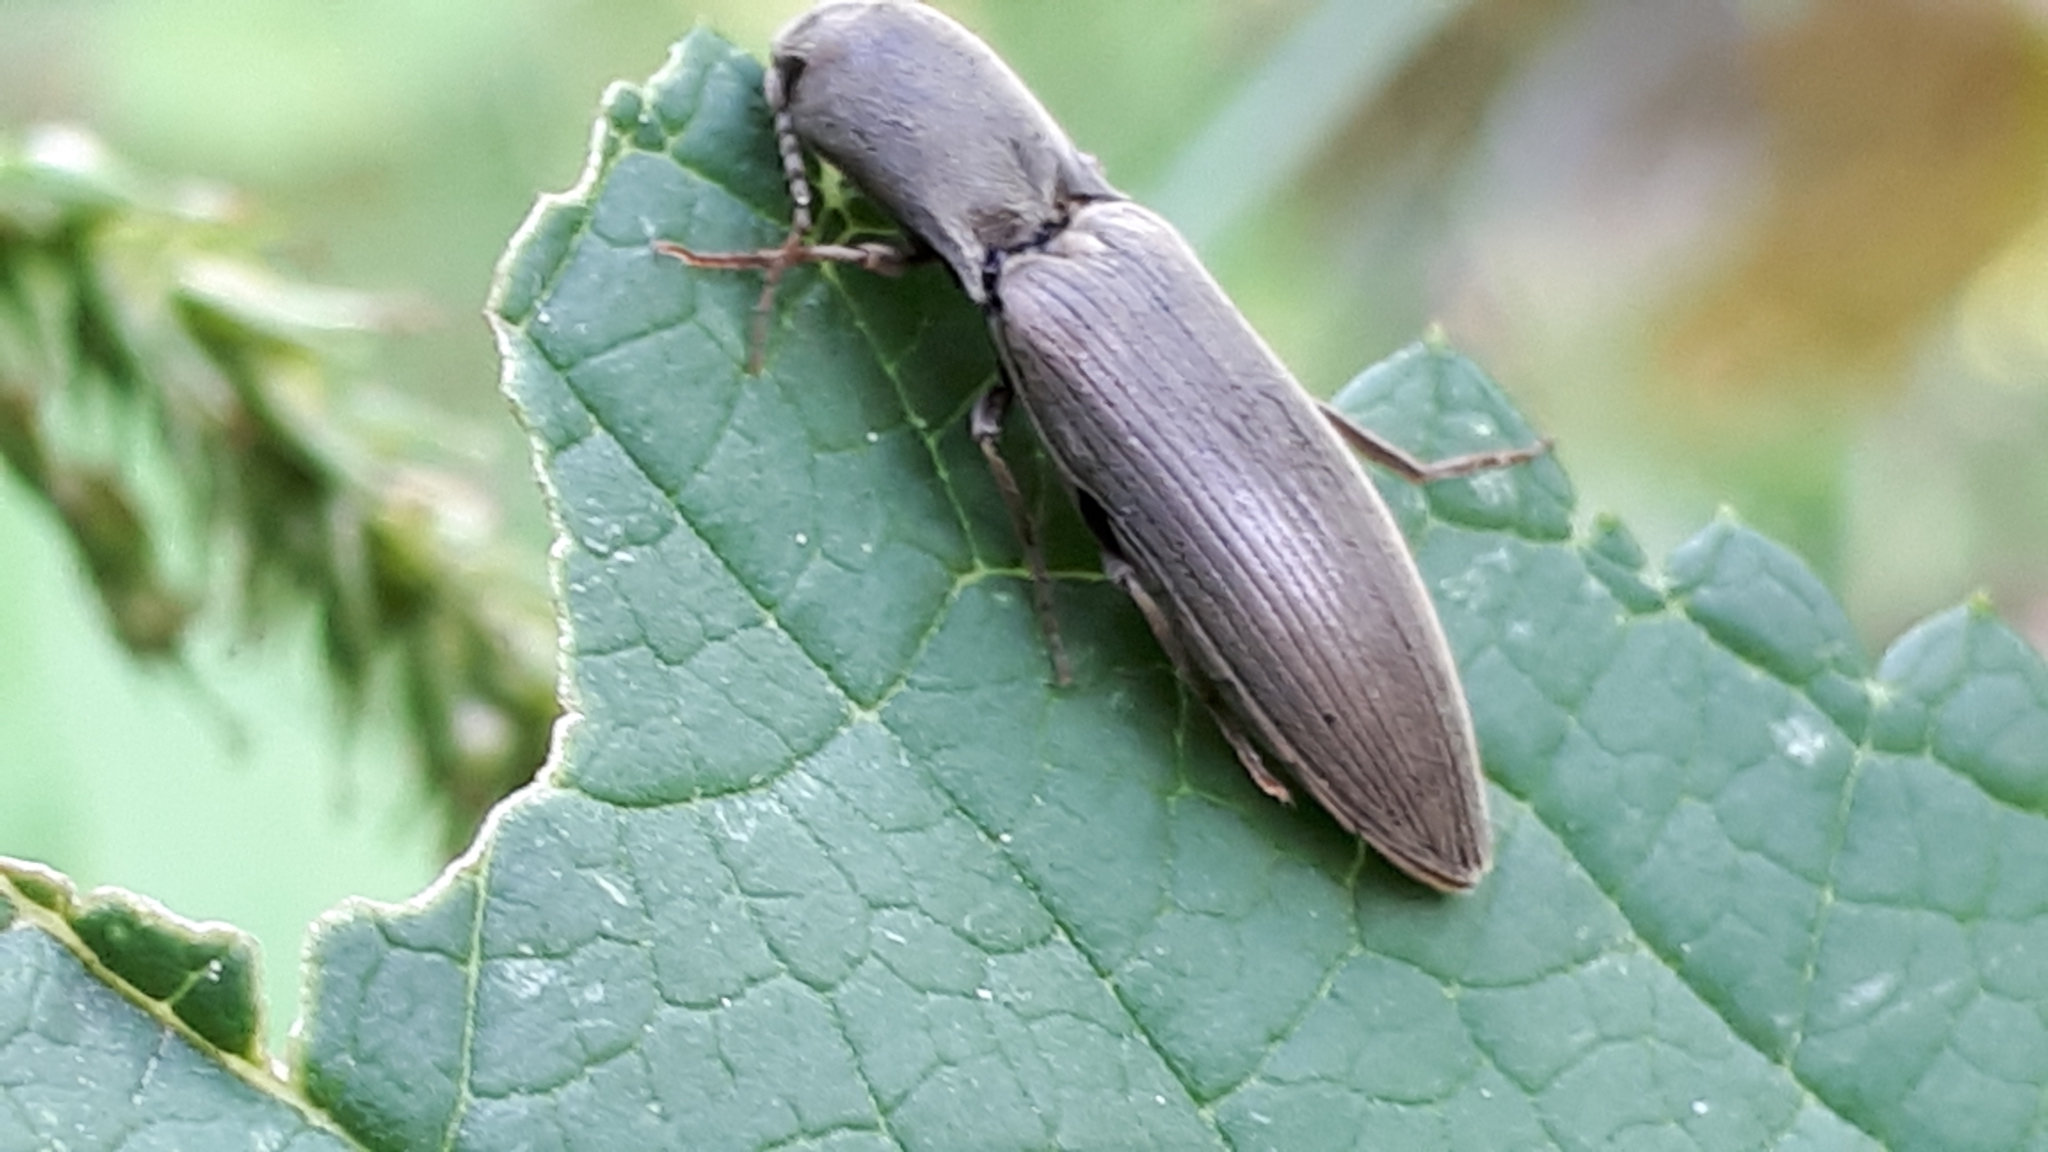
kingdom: Animalia
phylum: Arthropoda
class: Insecta
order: Coleoptera
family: Elateridae
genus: Agriotes
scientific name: Agriotes pilosellus
